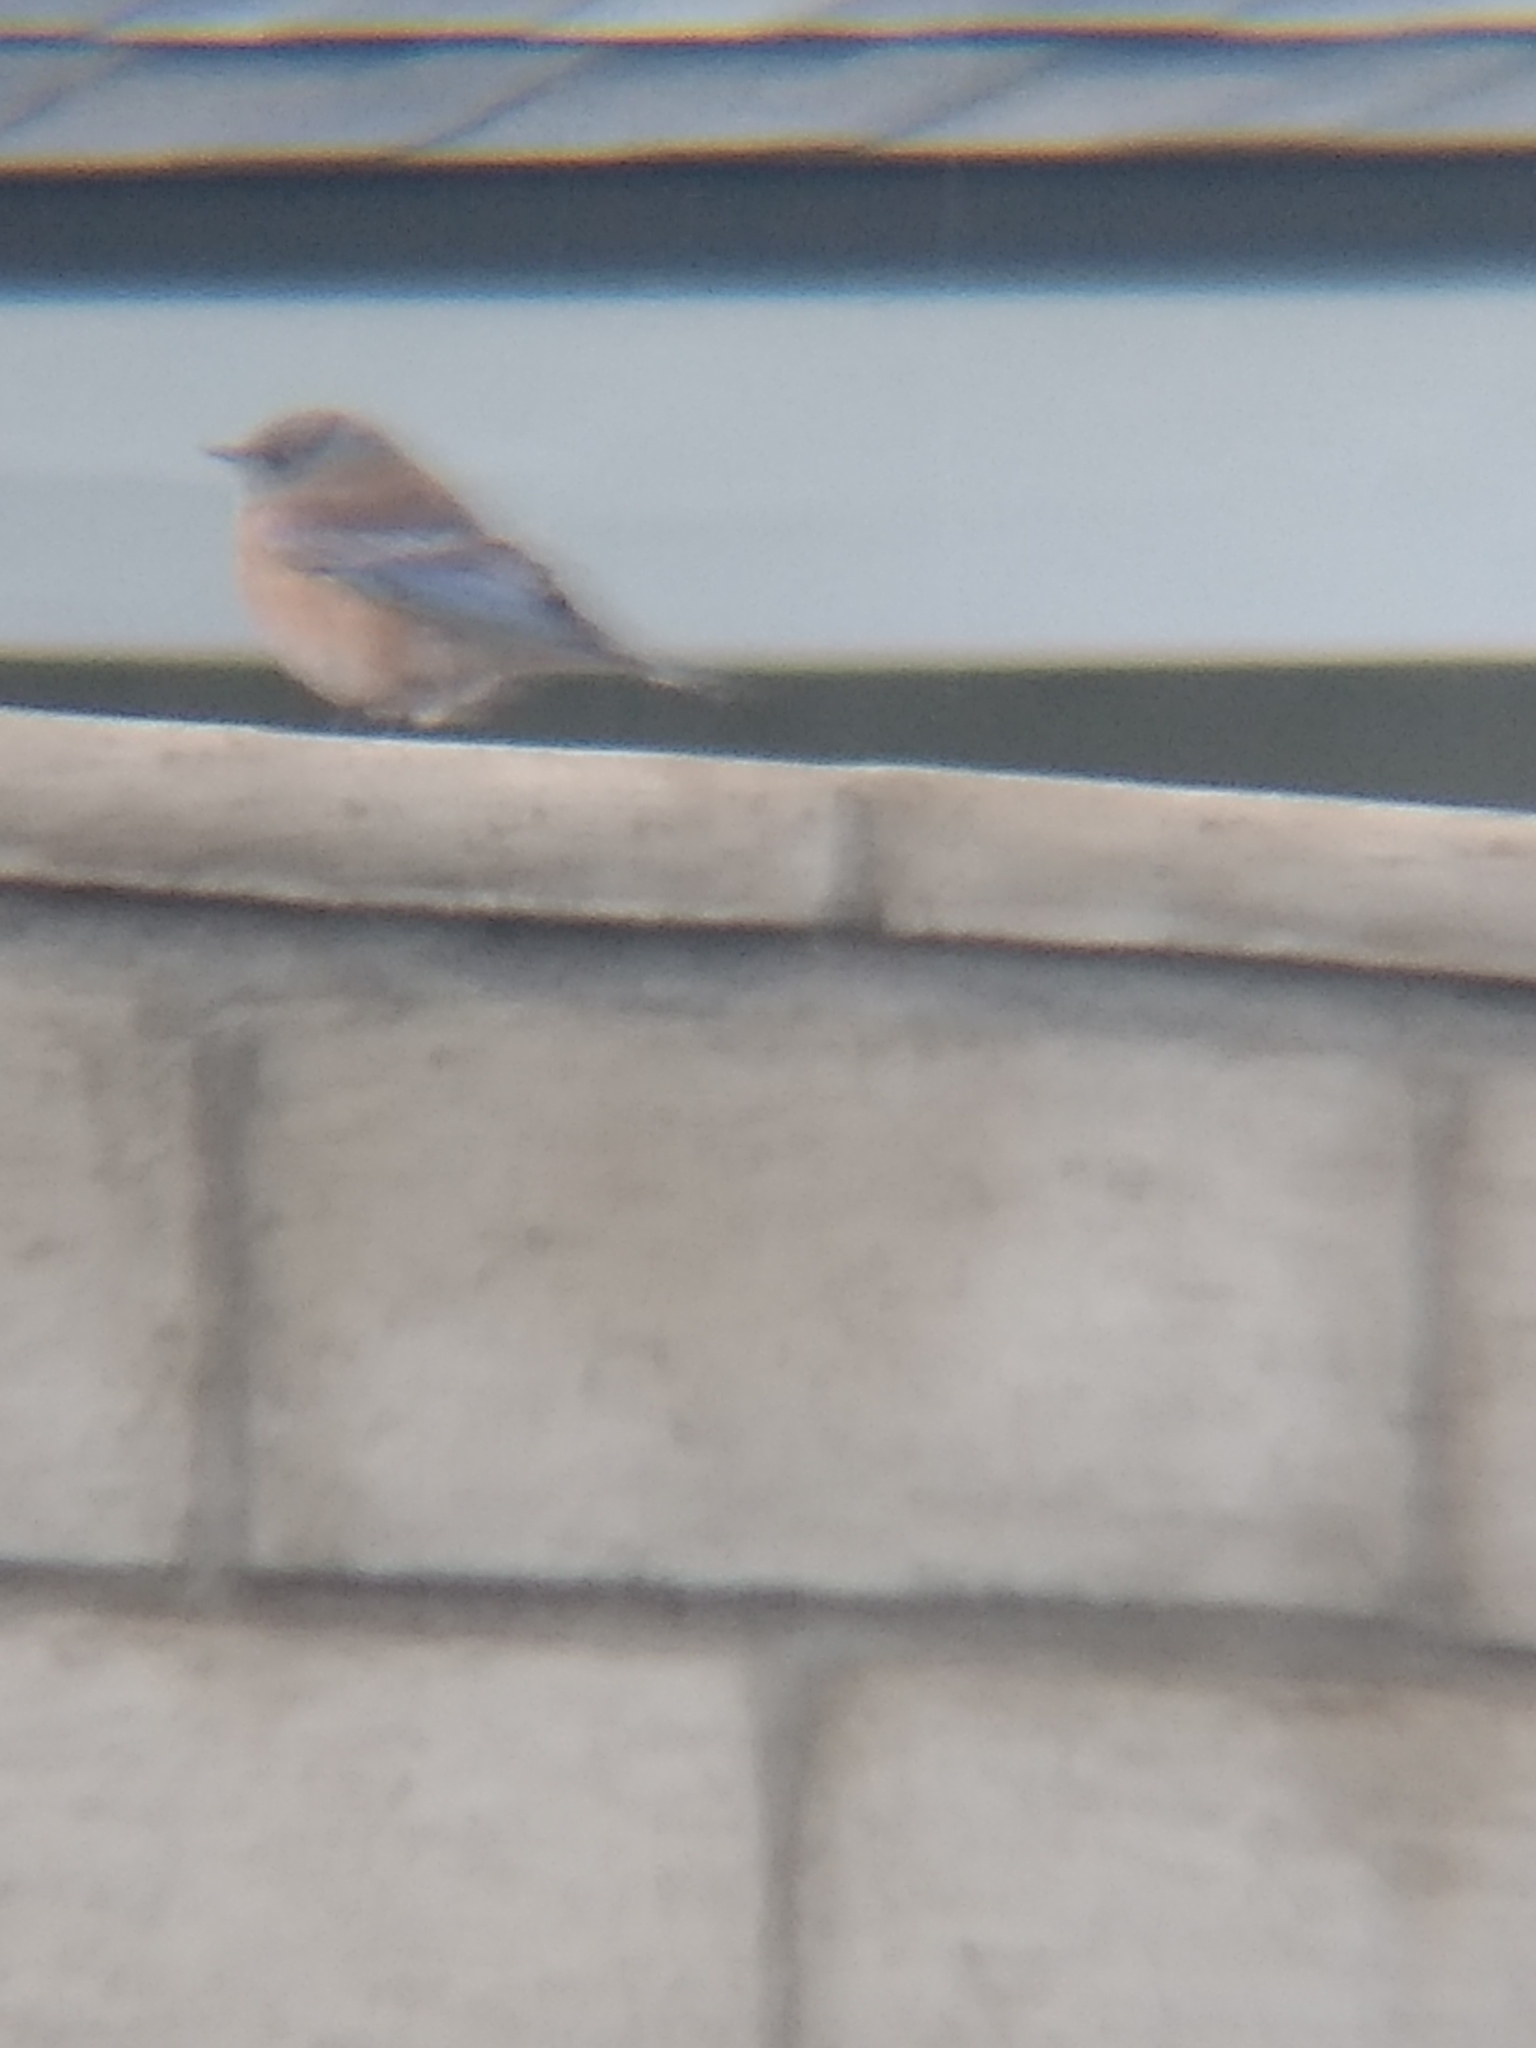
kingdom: Animalia
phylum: Chordata
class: Aves
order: Passeriformes
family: Turdidae
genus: Sialia
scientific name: Sialia mexicana
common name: Western bluebird
